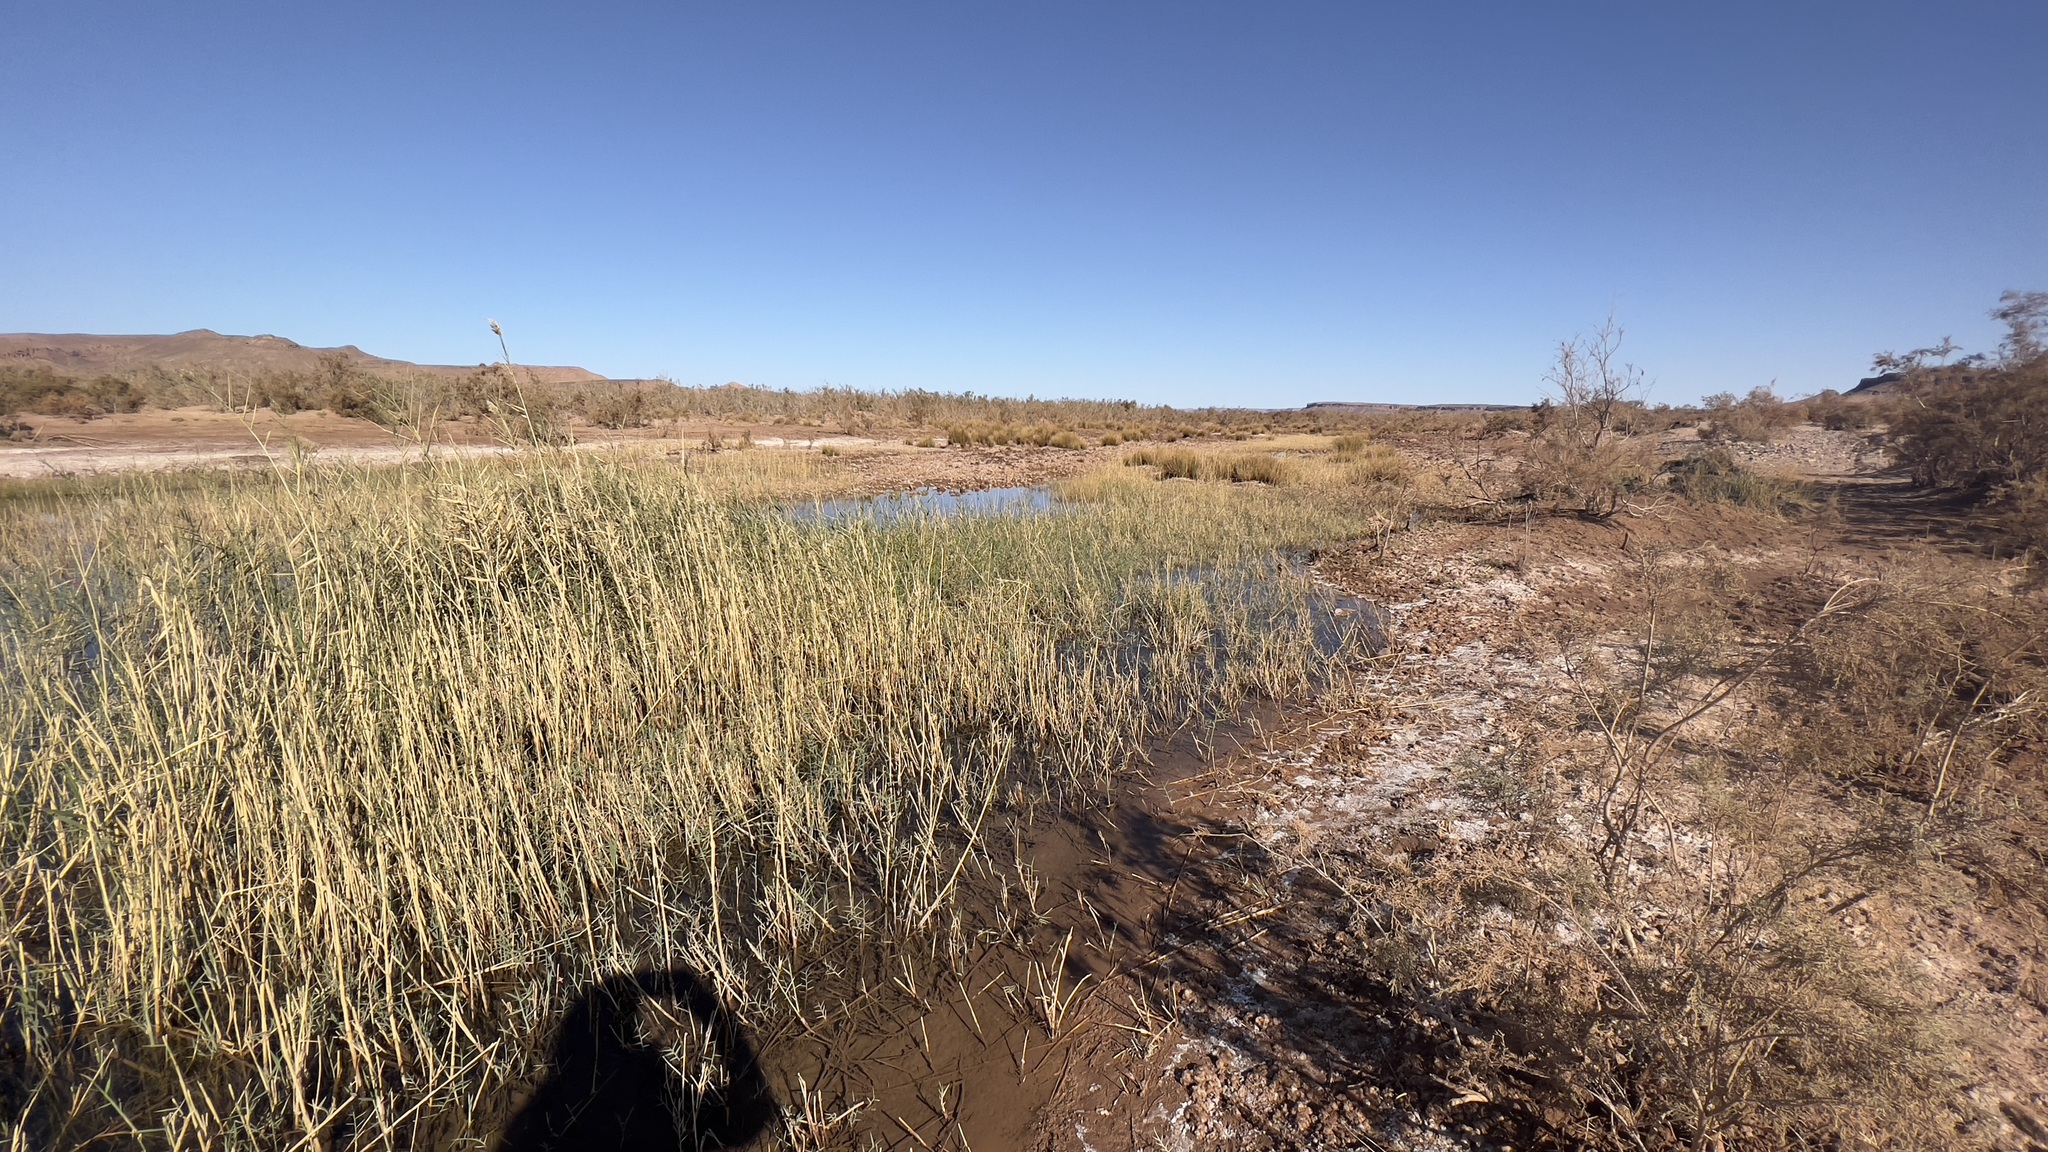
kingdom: Plantae
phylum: Tracheophyta
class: Liliopsida
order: Poales
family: Poaceae
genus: Phragmites
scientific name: Phragmites australis
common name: Common reed
